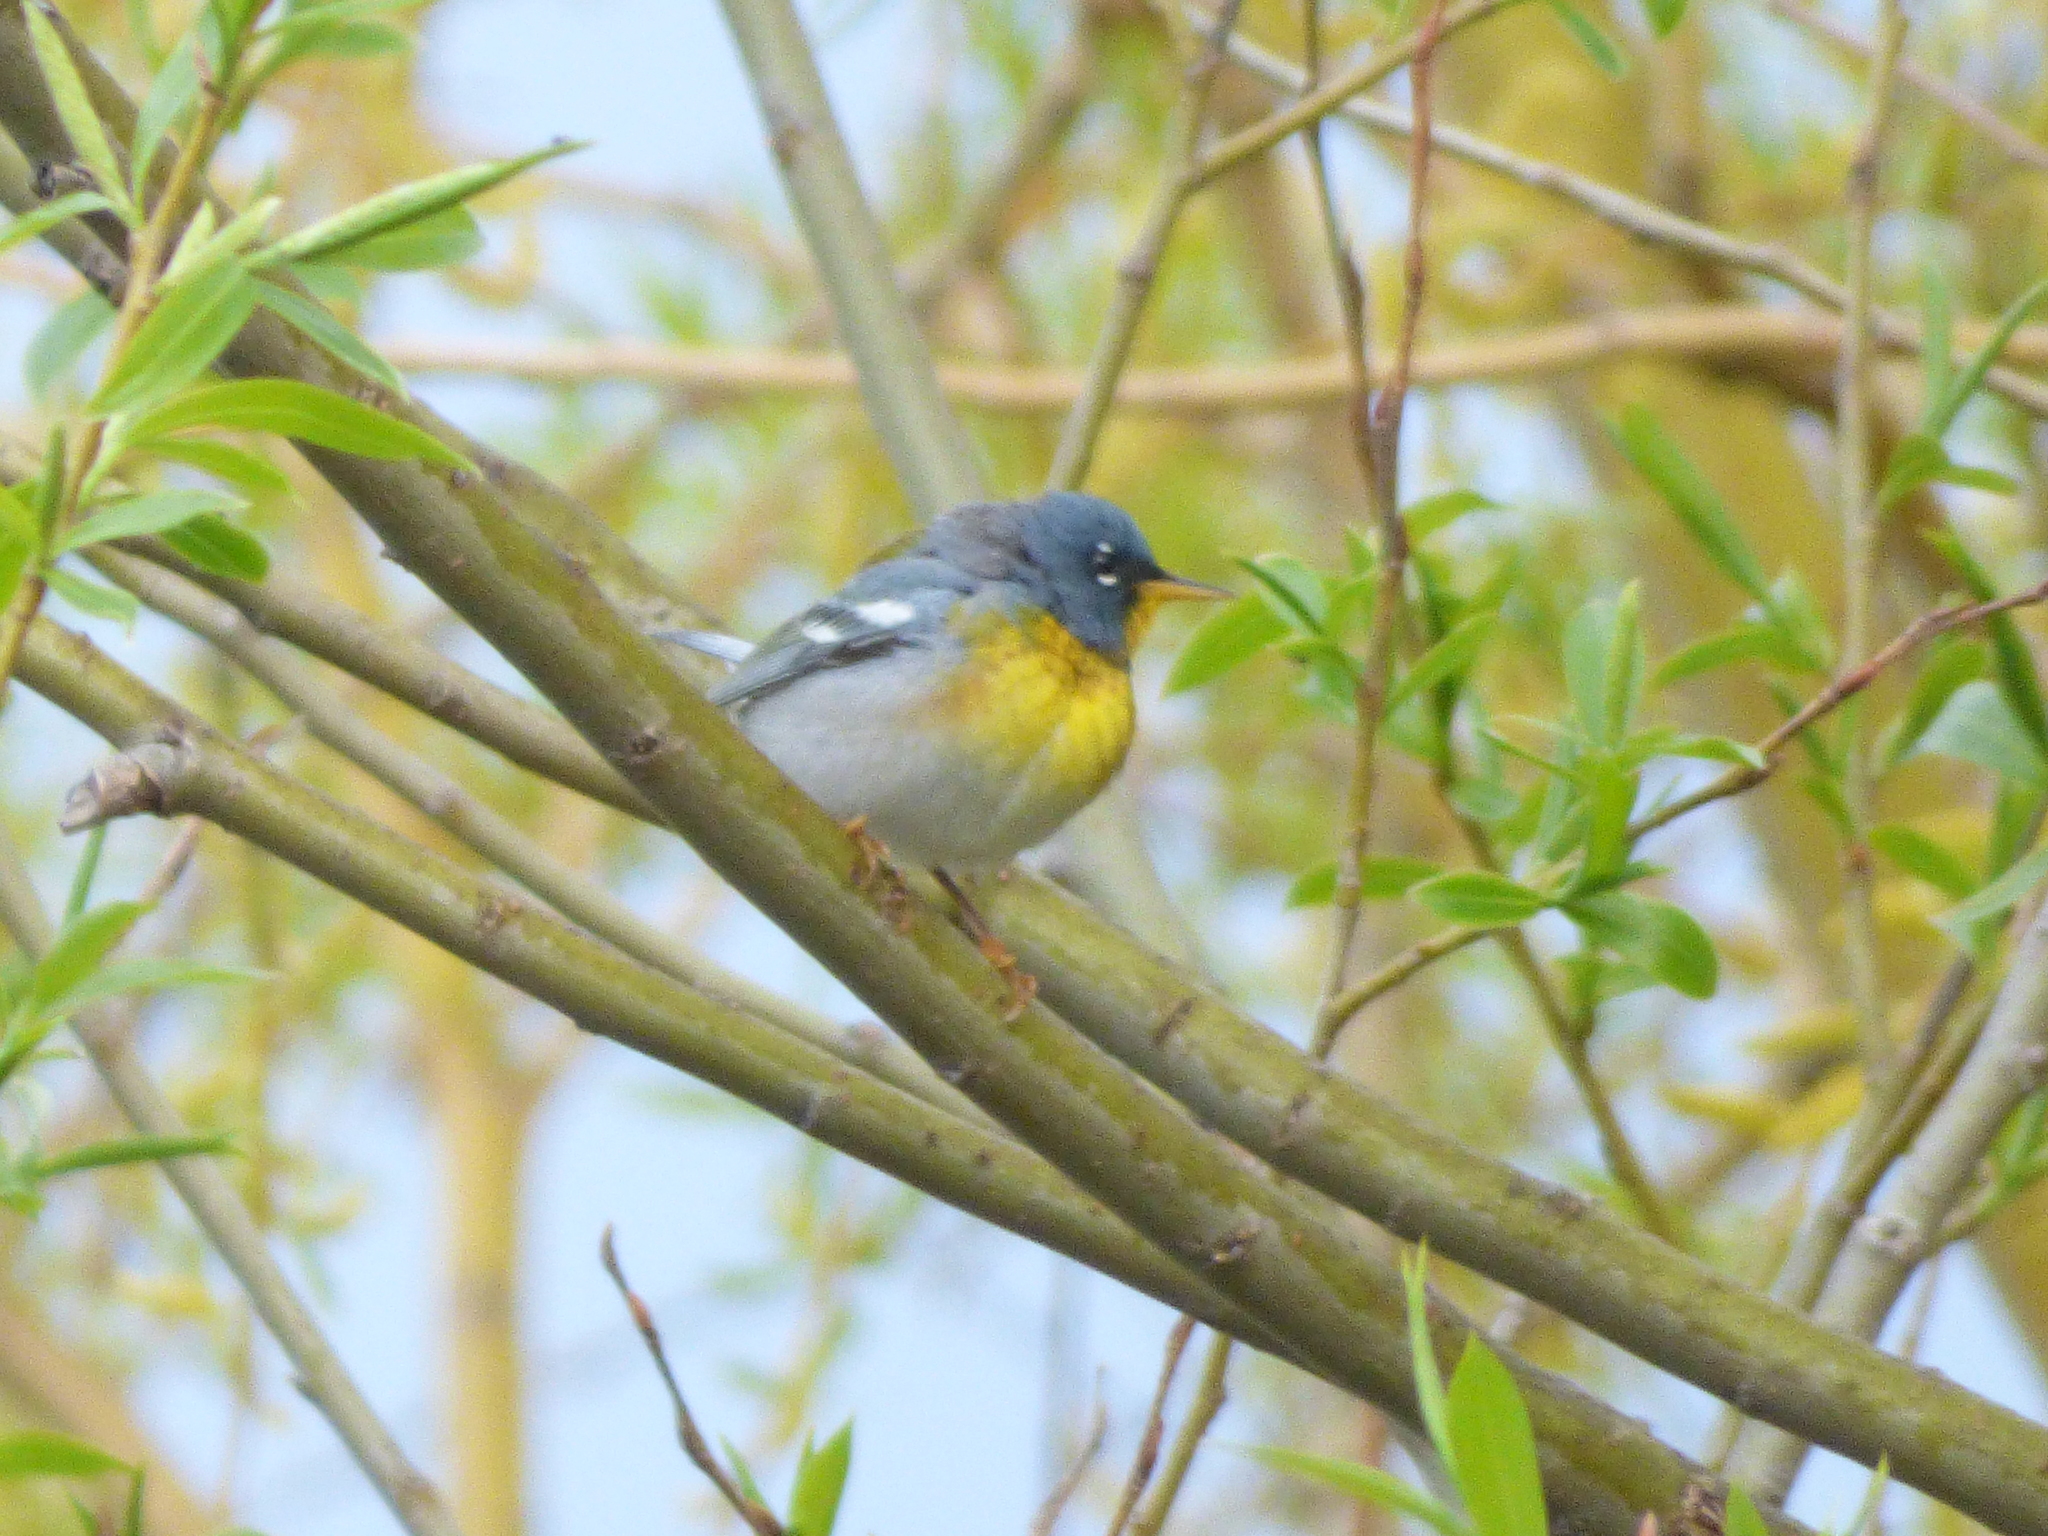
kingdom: Animalia
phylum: Chordata
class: Aves
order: Passeriformes
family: Parulidae
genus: Setophaga
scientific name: Setophaga americana
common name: Northern parula
